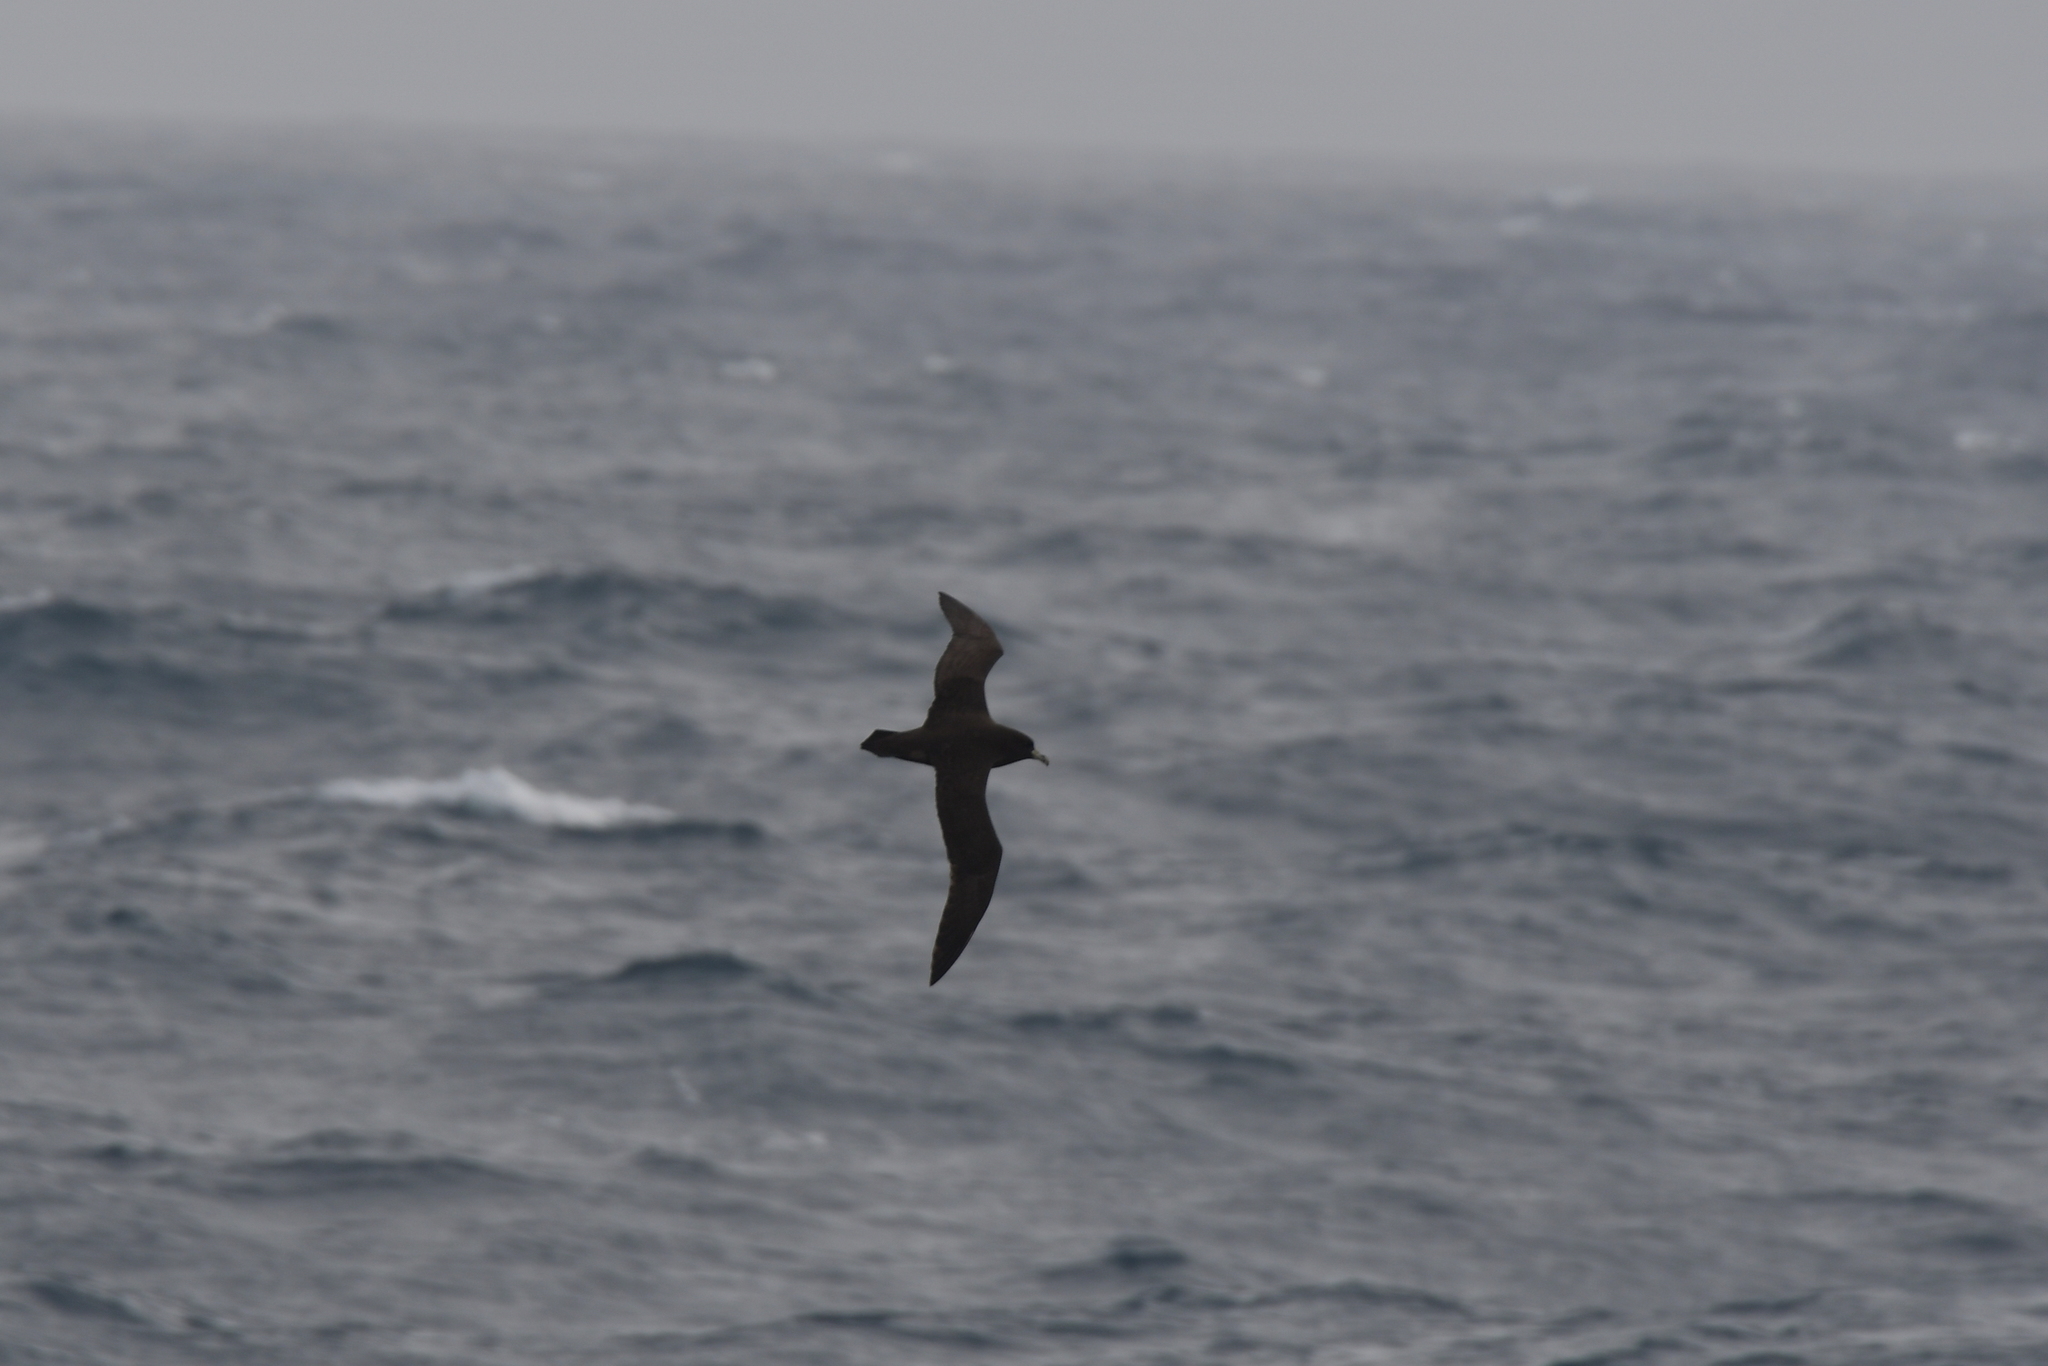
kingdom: Animalia
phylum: Chordata
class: Aves
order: Procellariiformes
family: Procellariidae
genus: Procellaria
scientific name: Procellaria aequinoctialis
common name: White-chinned petrel
